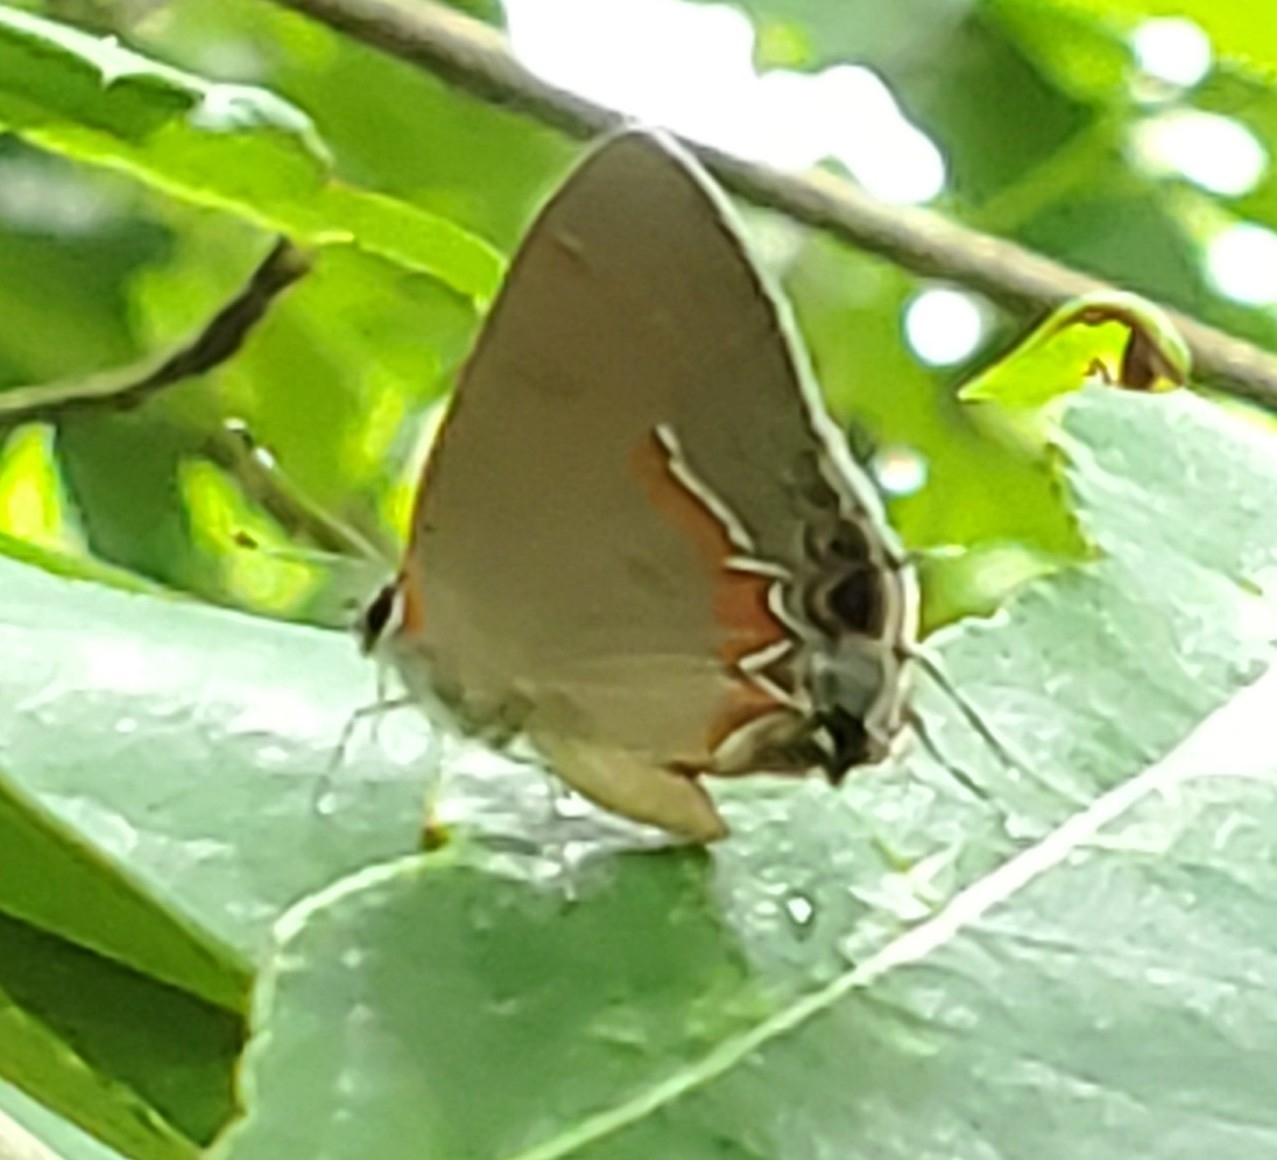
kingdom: Animalia
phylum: Arthropoda
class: Insecta
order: Lepidoptera
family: Lycaenidae
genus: Calycopis
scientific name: Calycopis cecrops
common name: Red-banded hairstreak
